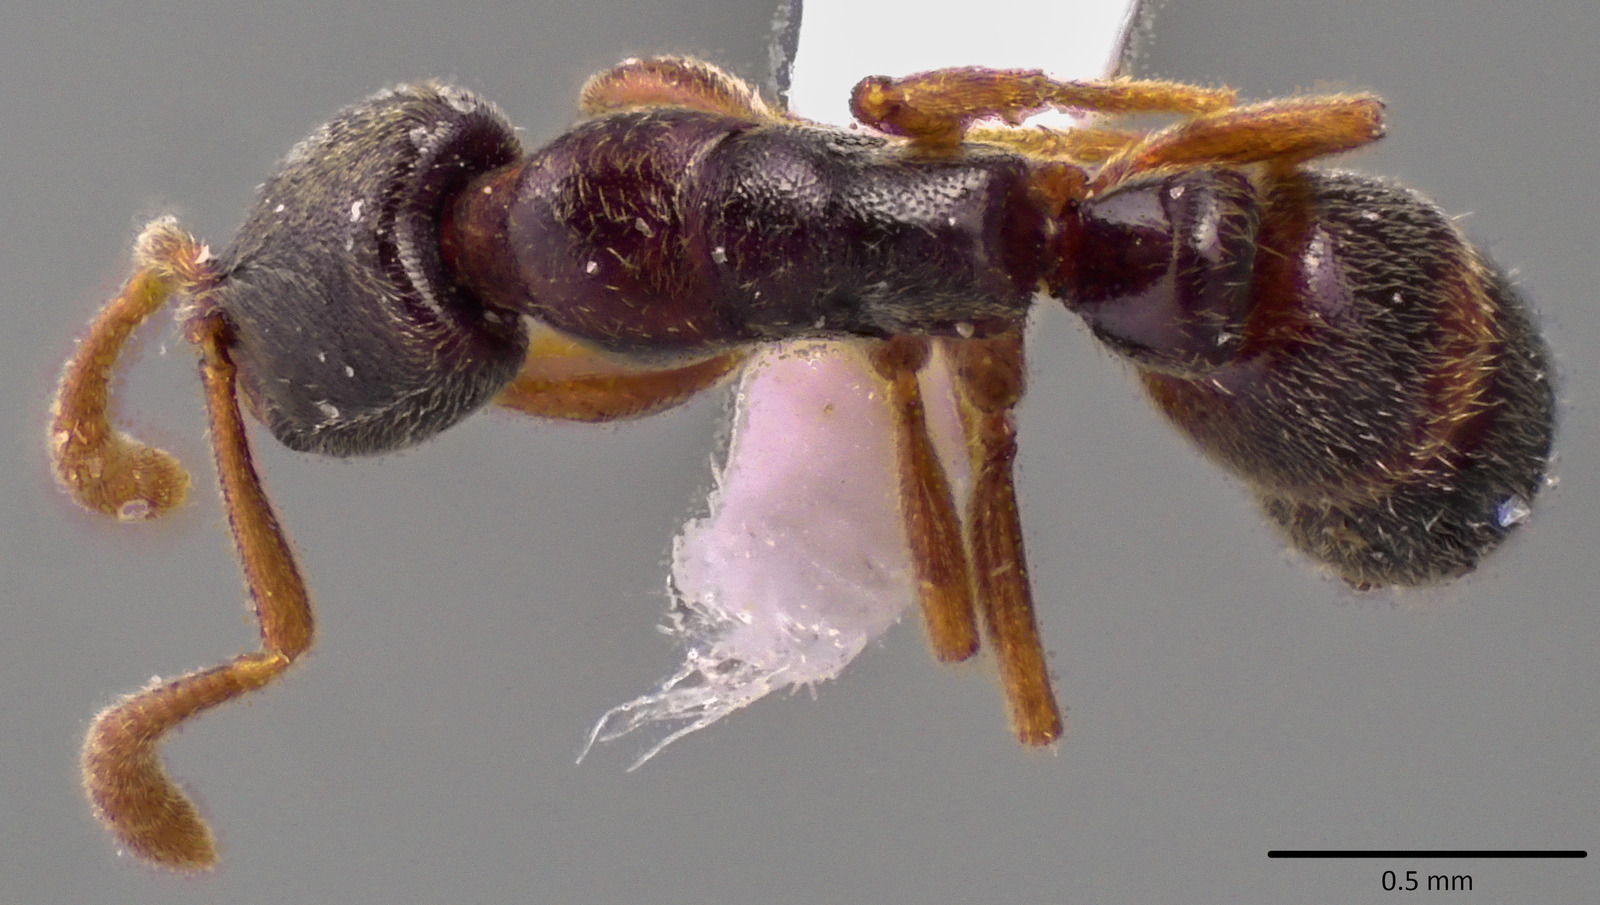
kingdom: Animalia
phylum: Arthropoda
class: Insecta
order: Hymenoptera
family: Formicidae
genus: Ponera
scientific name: Ponera pennsylvanica
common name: Pennsylvania ponera
